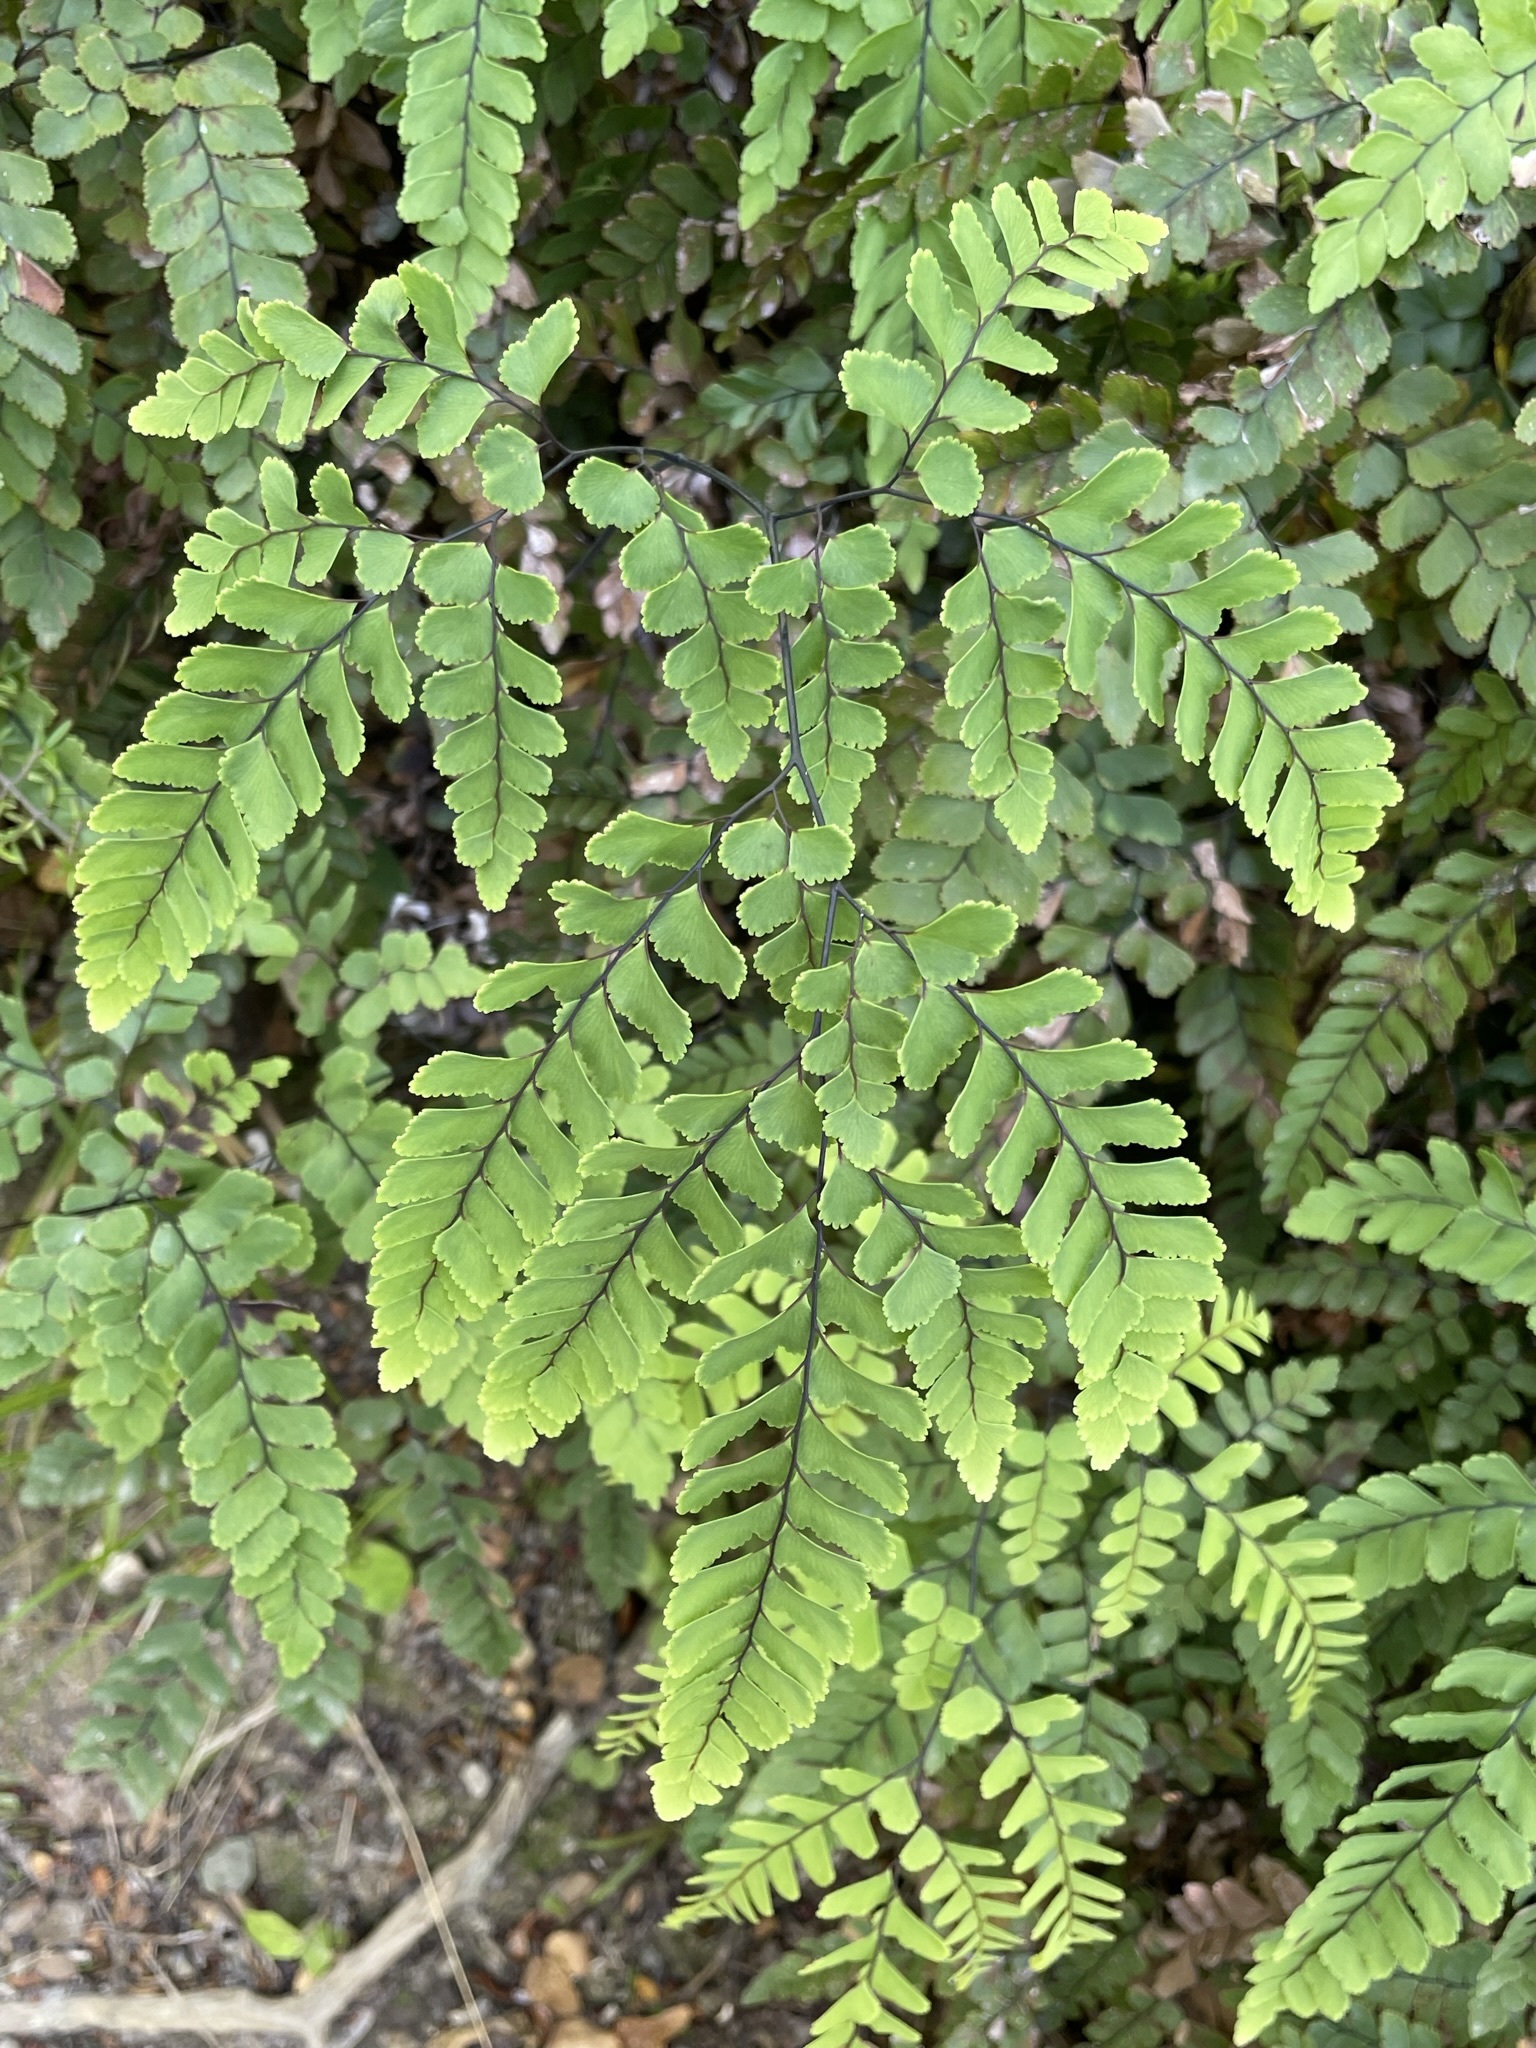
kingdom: Plantae
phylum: Tracheophyta
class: Polypodiopsida
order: Polypodiales
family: Pteridaceae
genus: Adiantum
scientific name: Adiantum cunninghamii
